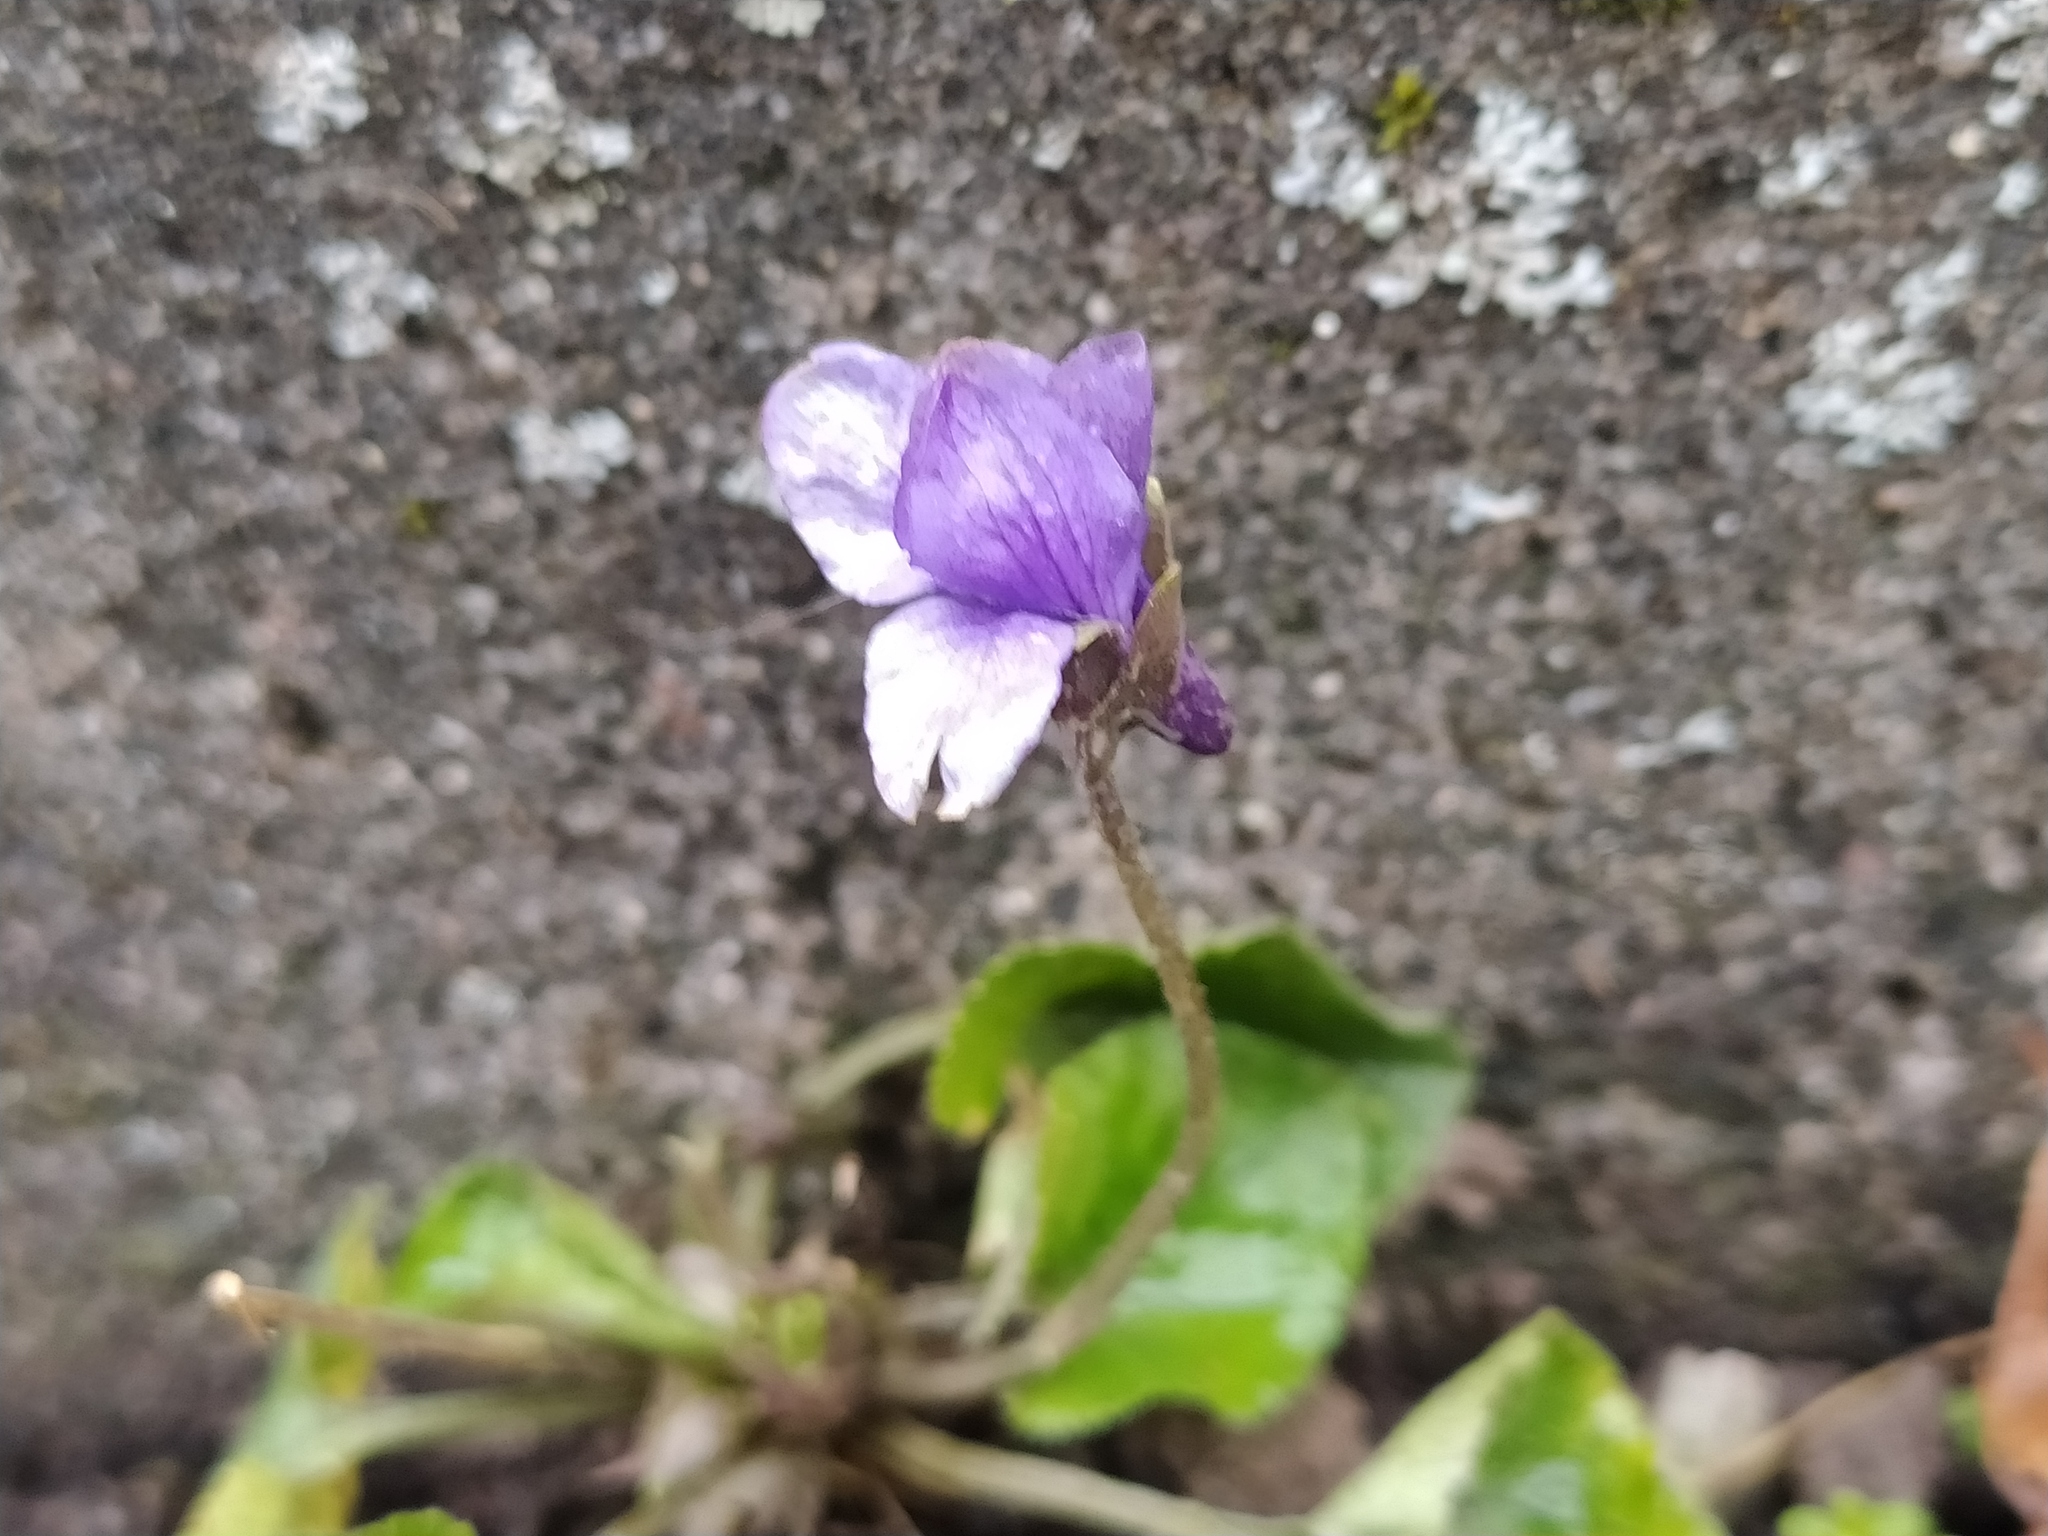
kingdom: Plantae
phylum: Tracheophyta
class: Magnoliopsida
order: Malpighiales
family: Violaceae
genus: Viola
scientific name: Viola odorata
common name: Sweet violet
